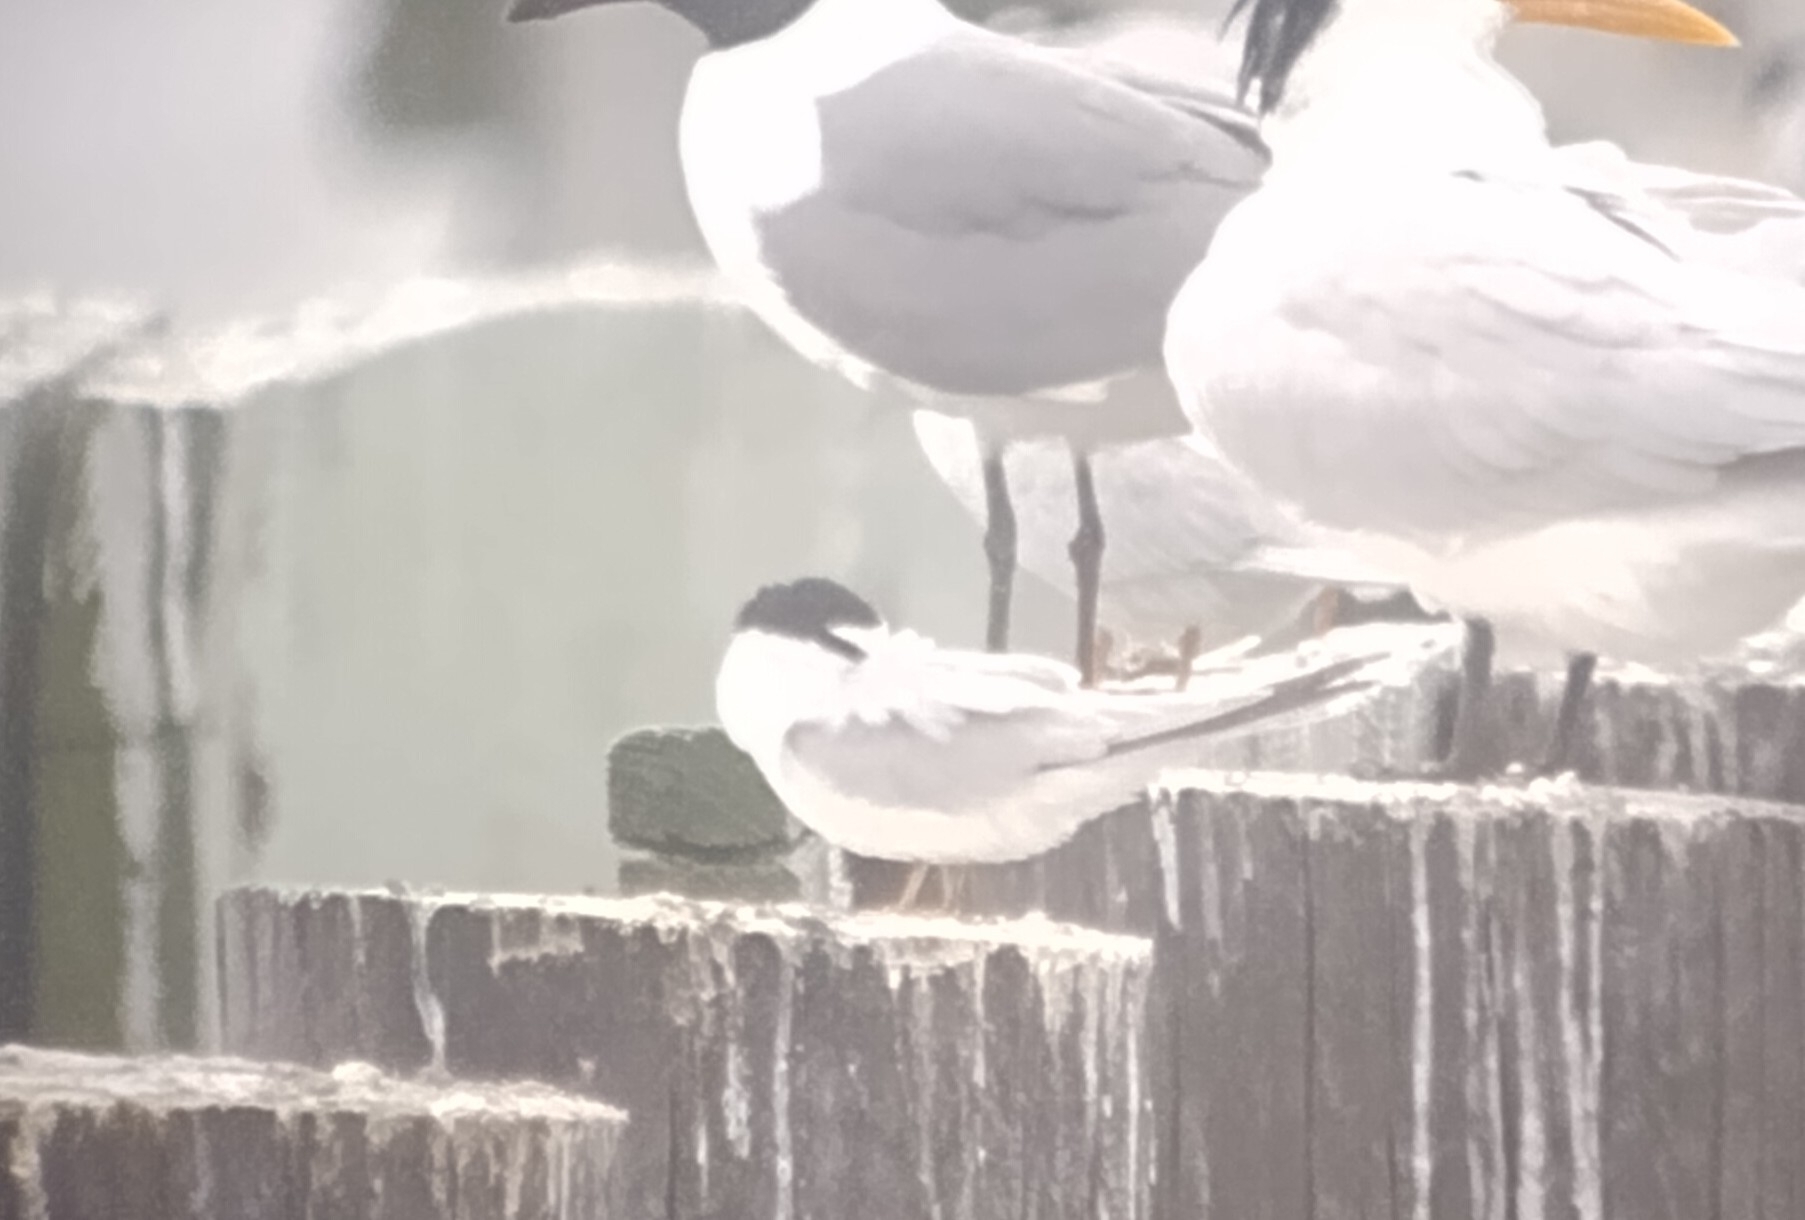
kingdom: Animalia
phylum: Chordata
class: Aves
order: Charadriiformes
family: Laridae
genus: Sternula
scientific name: Sternula antillarum
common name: Least tern
